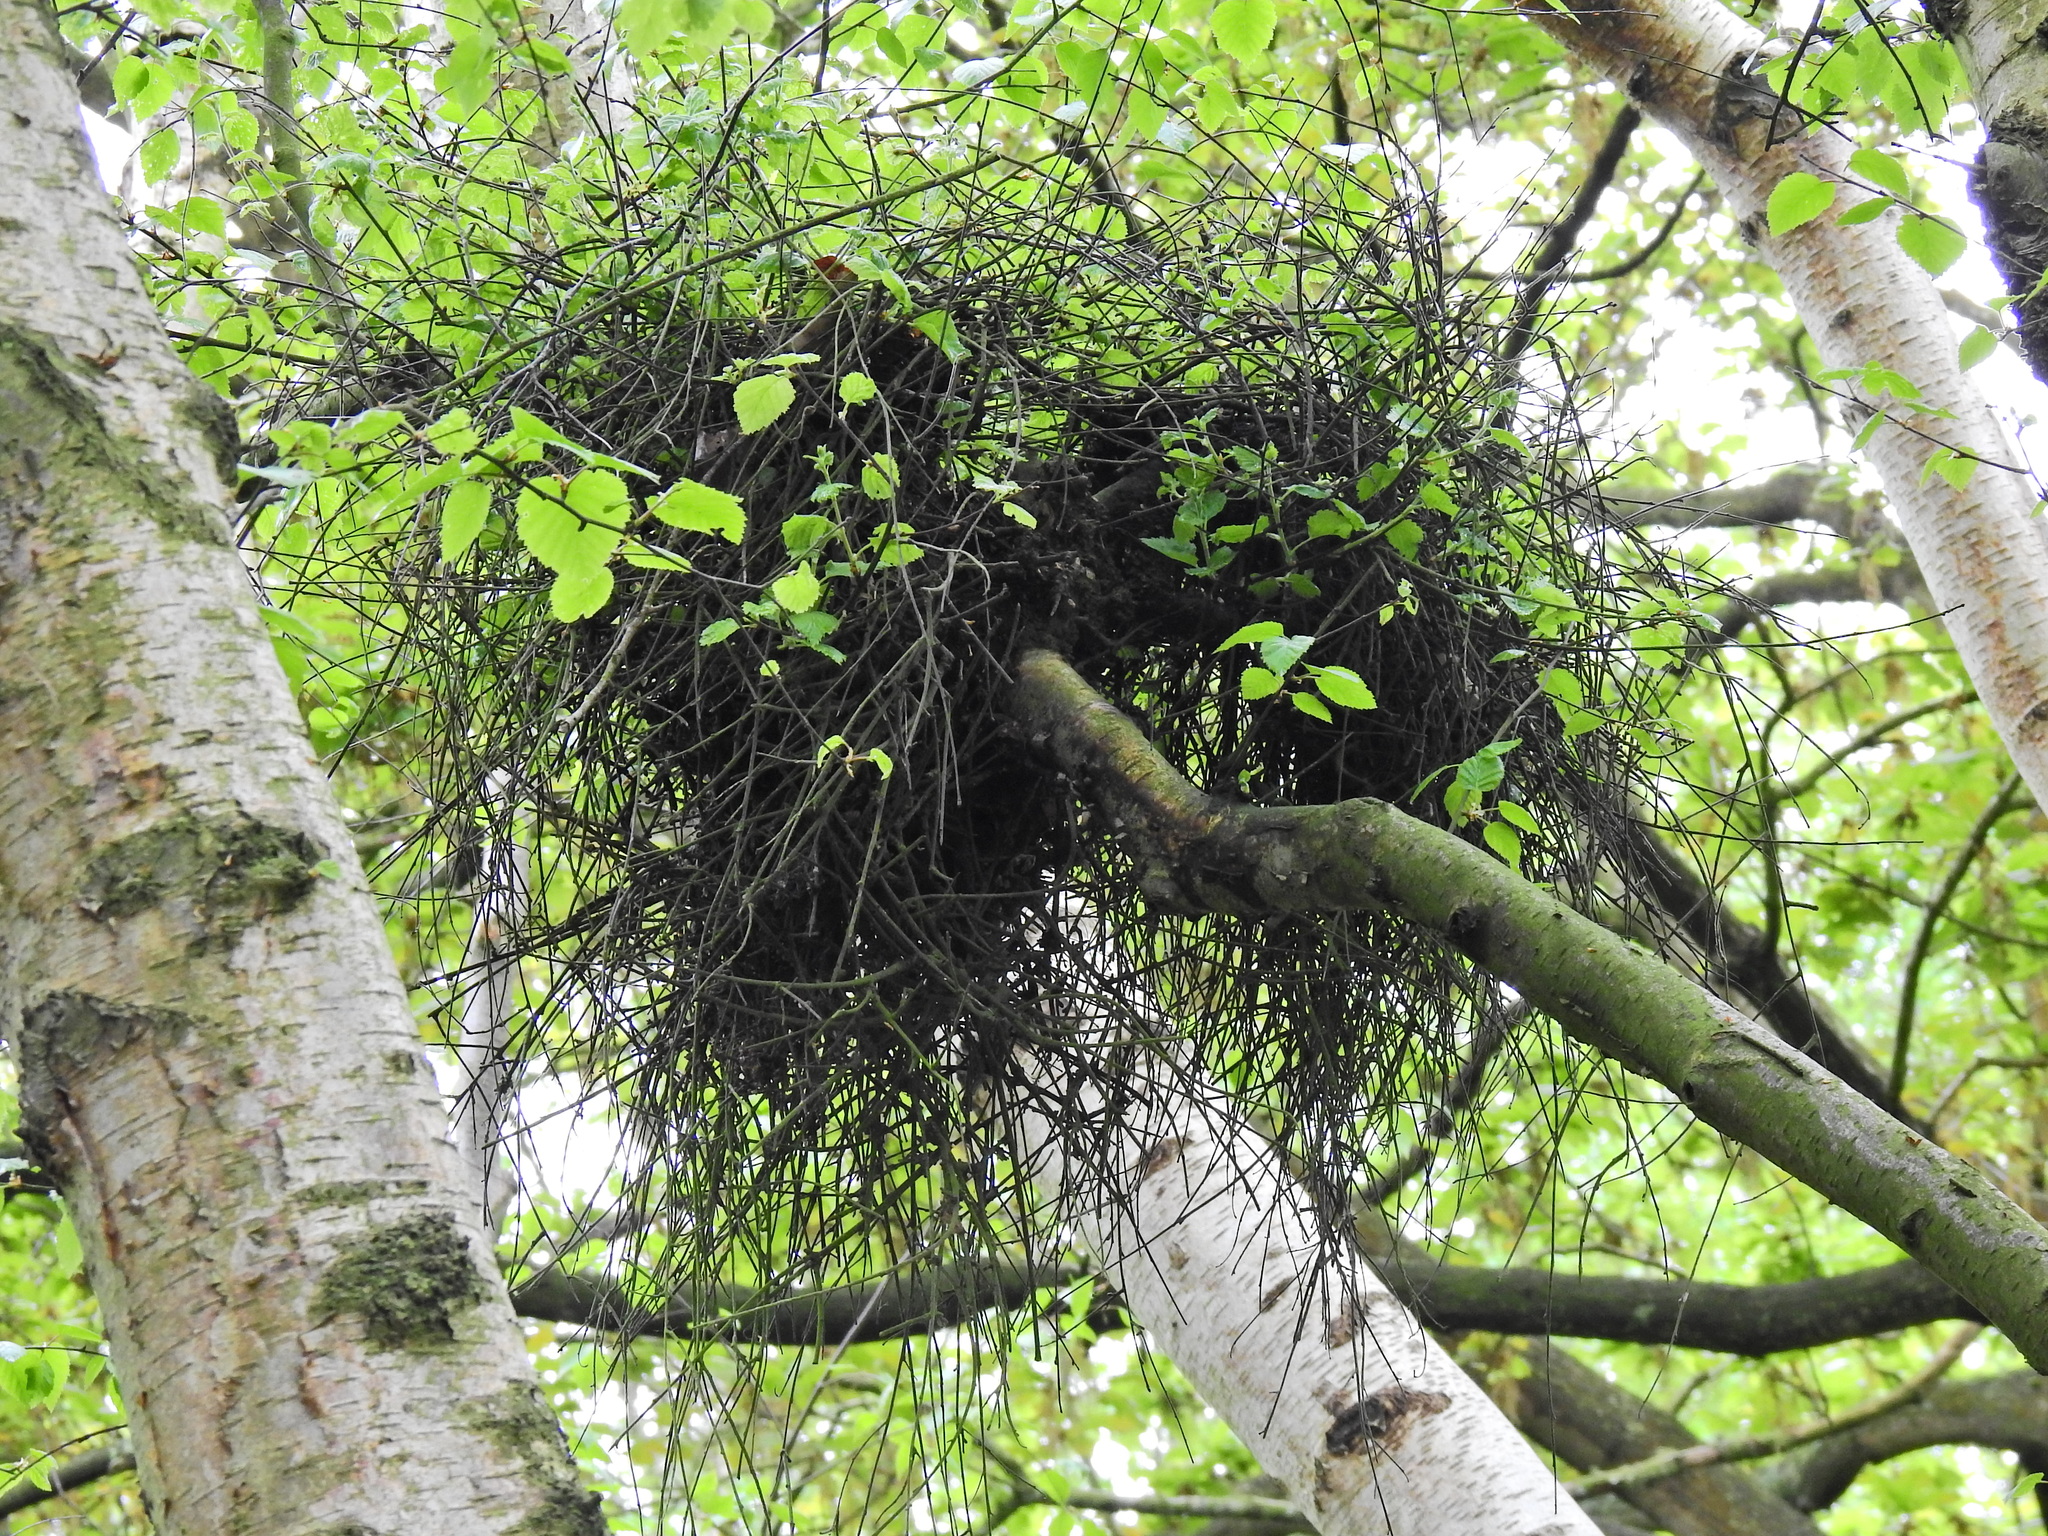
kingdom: Fungi
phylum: Ascomycota
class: Taphrinomycetes
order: Taphrinales
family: Taphrinaceae
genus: Taphrina
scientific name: Taphrina betulina
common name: Birch besom
